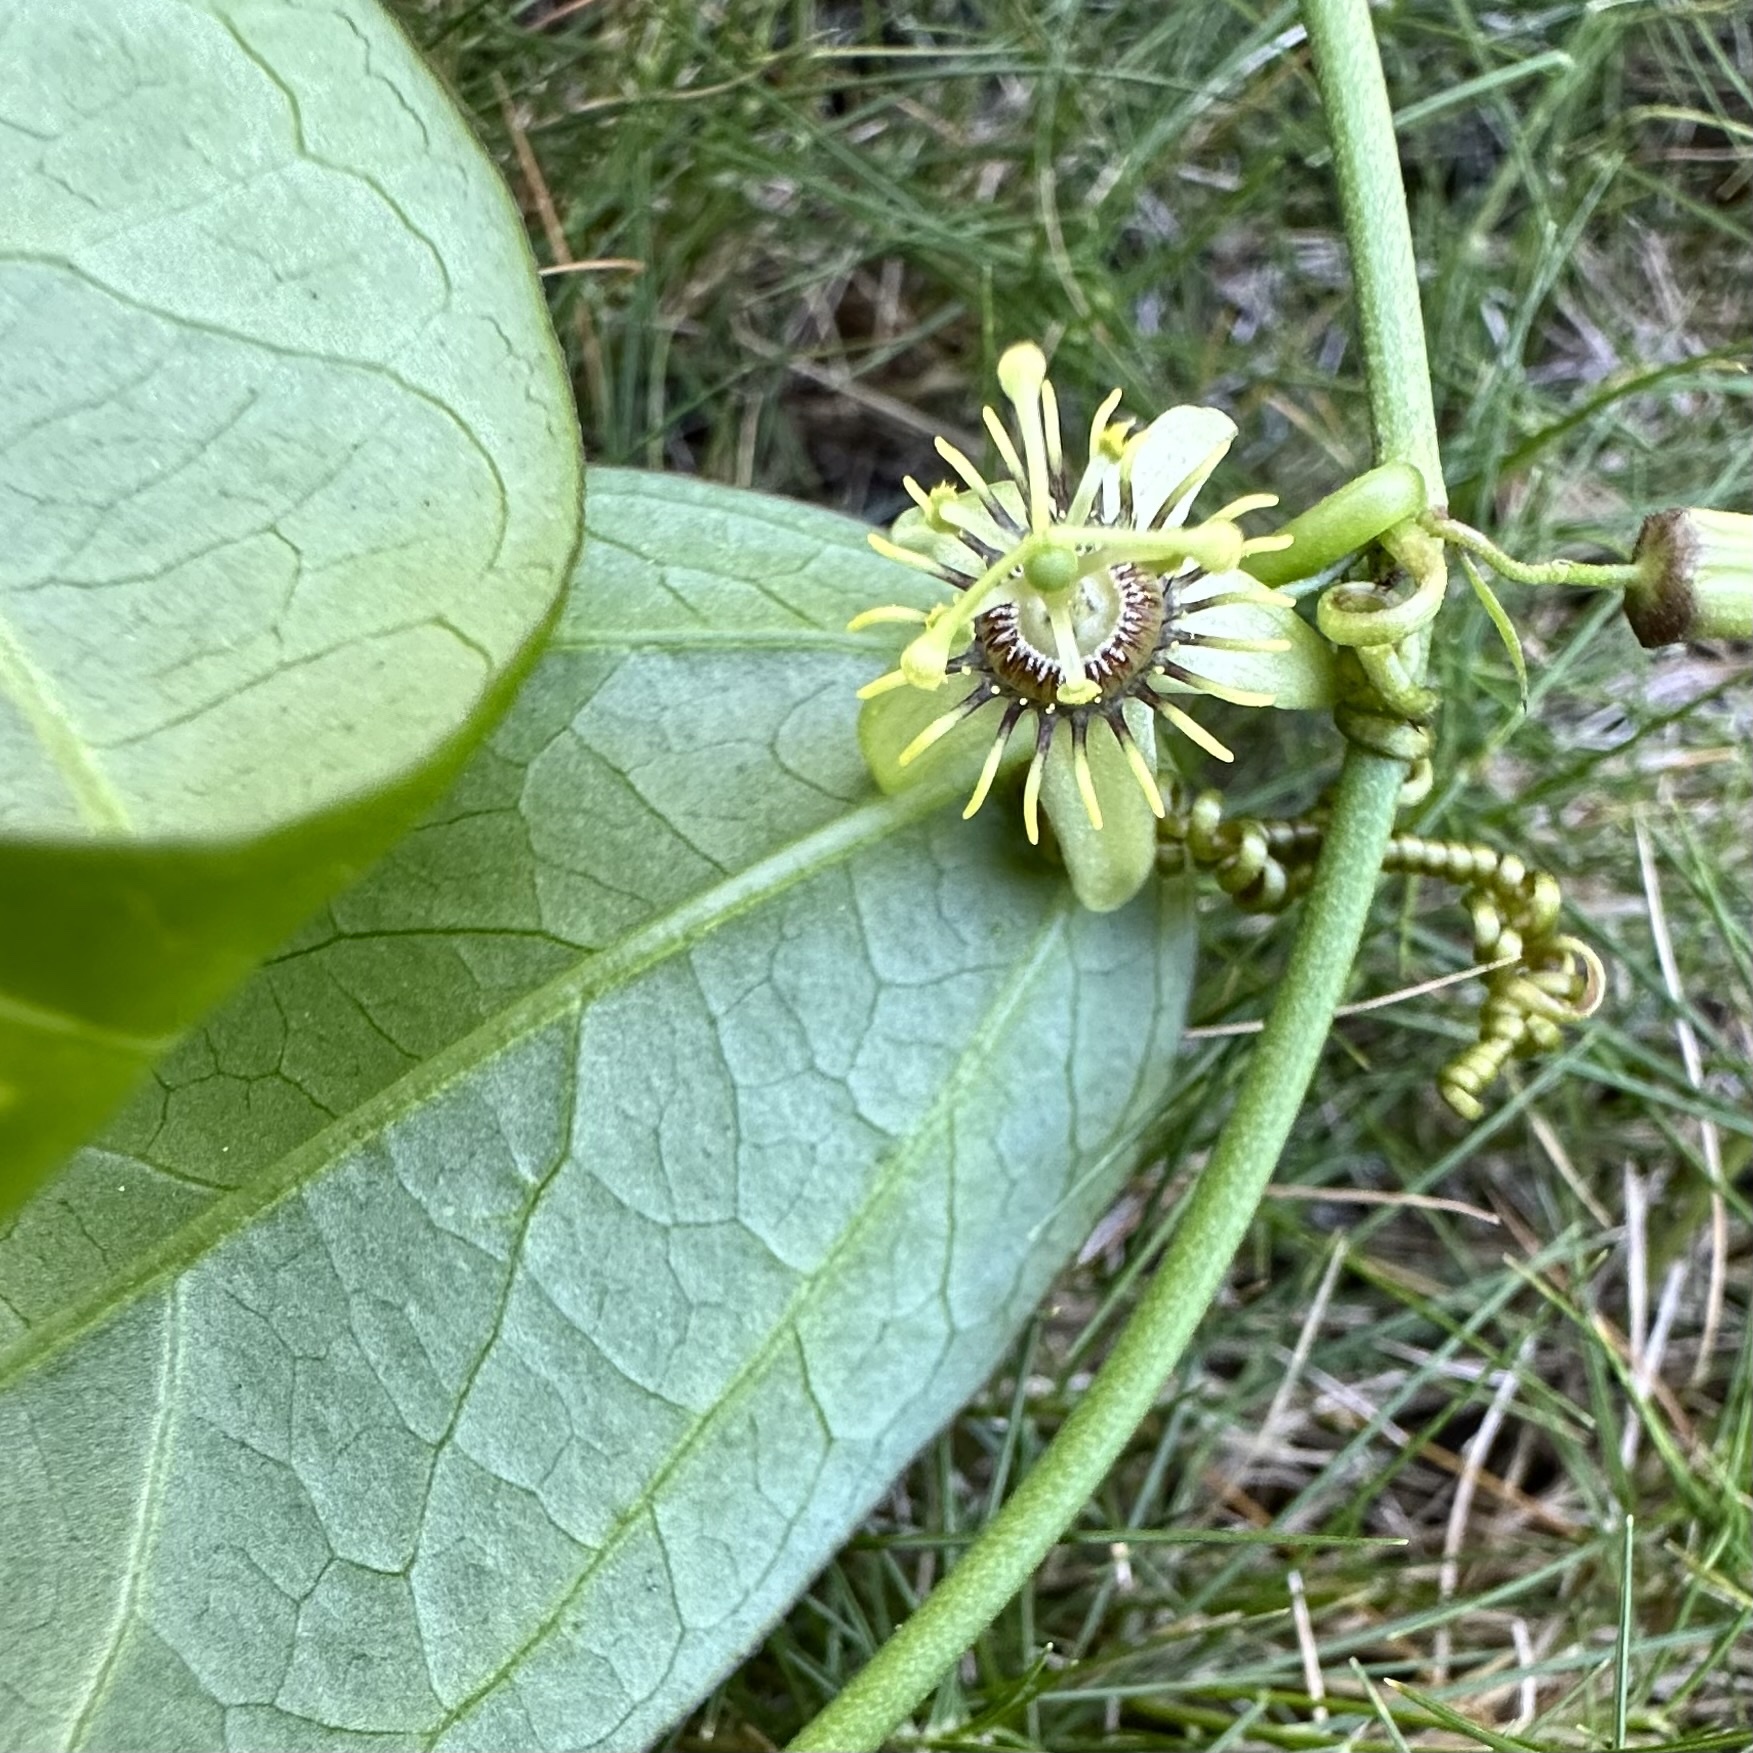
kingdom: Plantae
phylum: Tracheophyta
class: Magnoliopsida
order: Malpighiales
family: Passifloraceae
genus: Passiflora
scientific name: Passiflora suberosa
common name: Wild passionfruit
